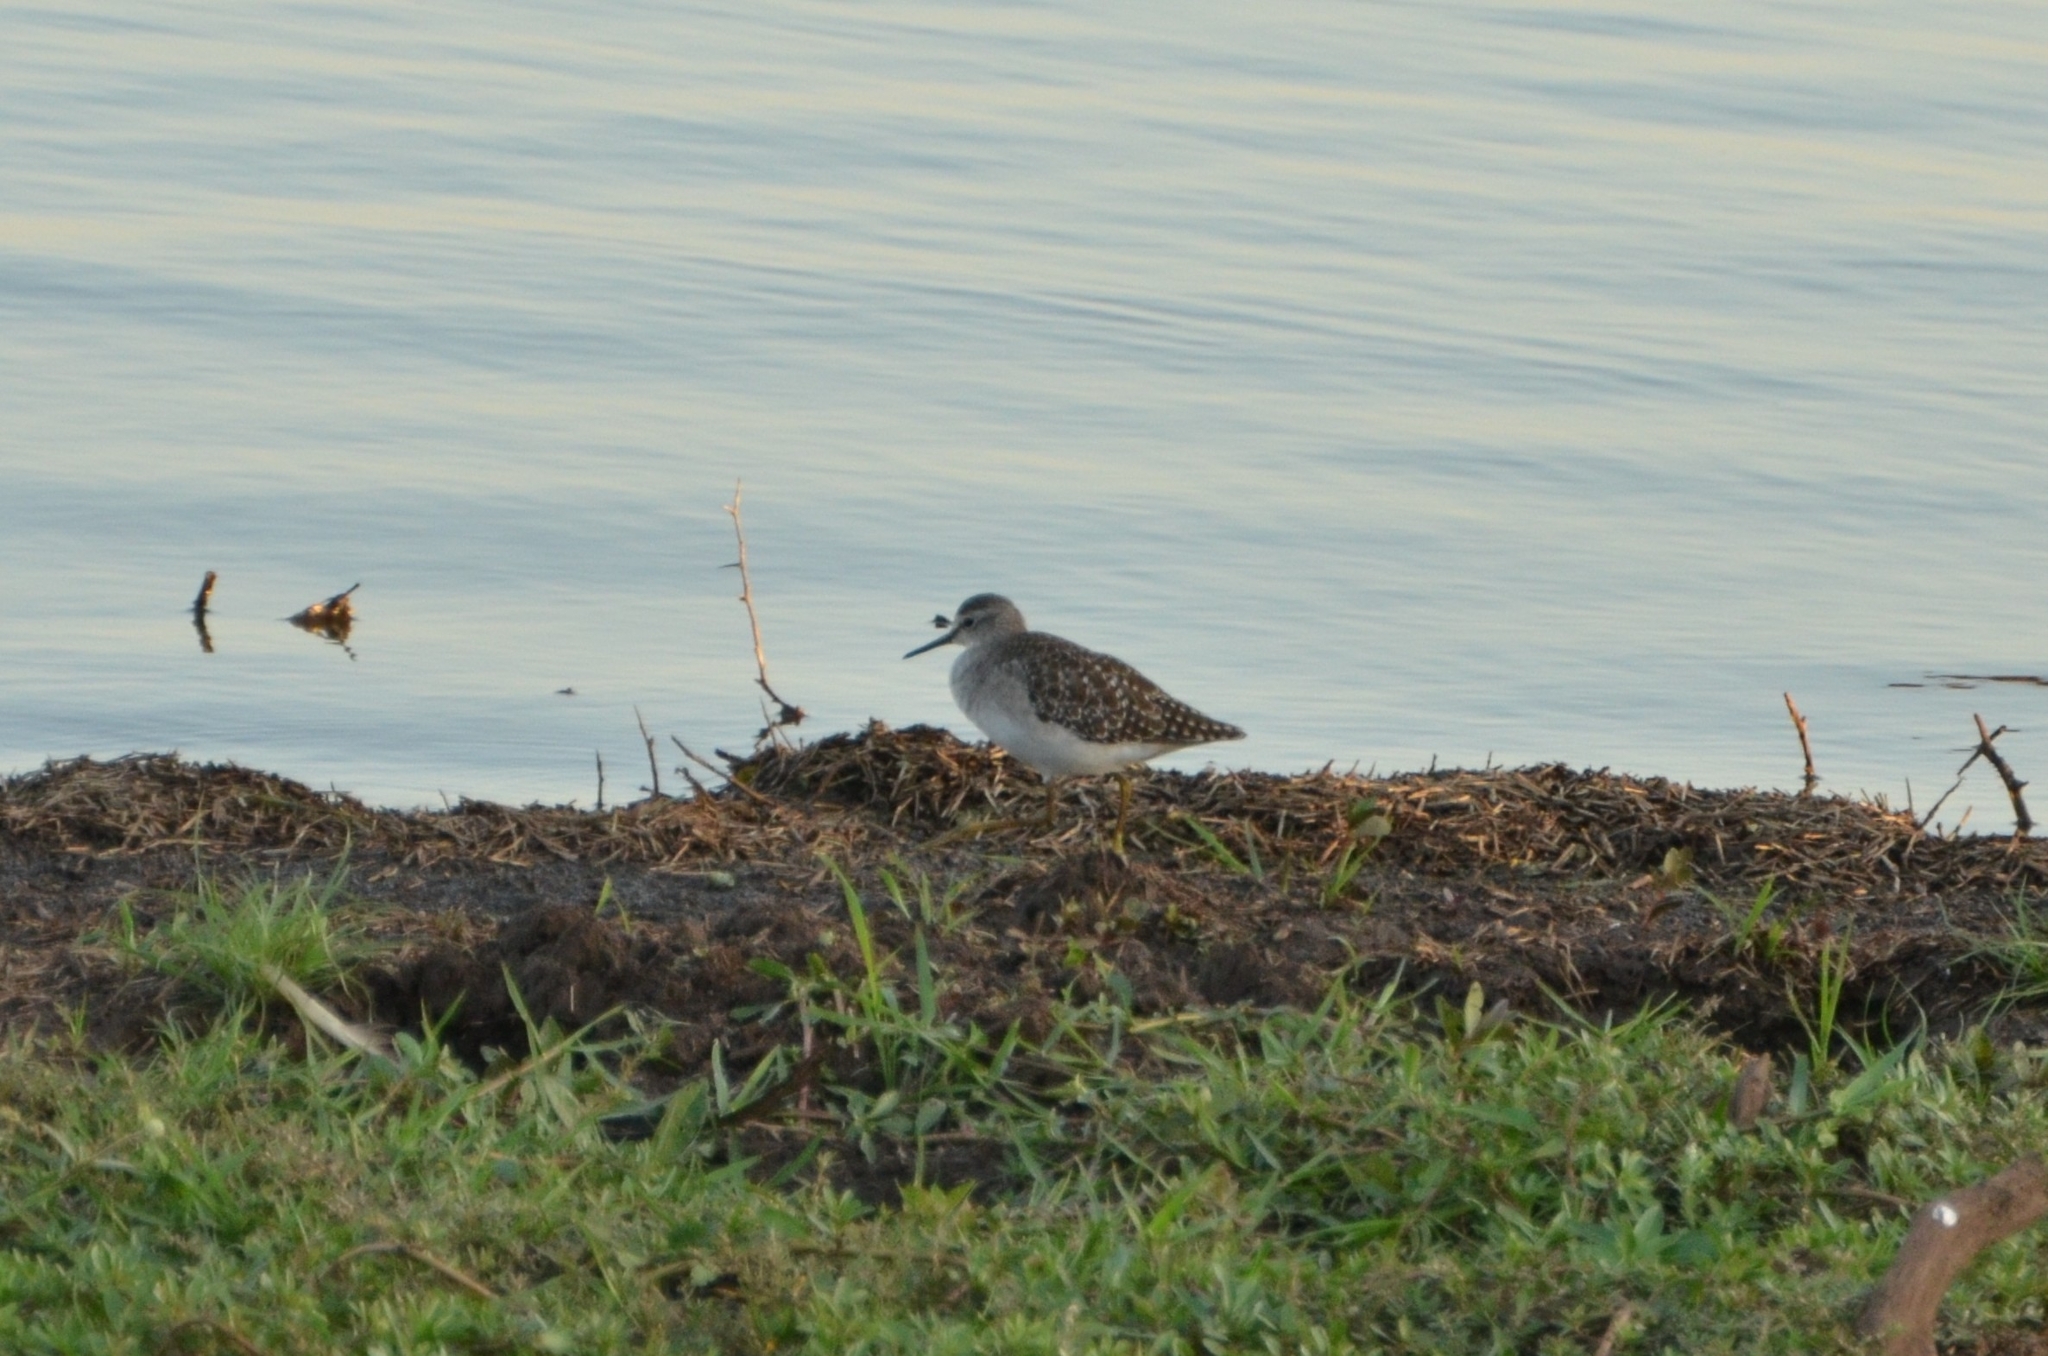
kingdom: Animalia
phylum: Chordata
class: Aves
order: Charadriiformes
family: Scolopacidae
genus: Tringa
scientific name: Tringa glareola
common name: Wood sandpiper
